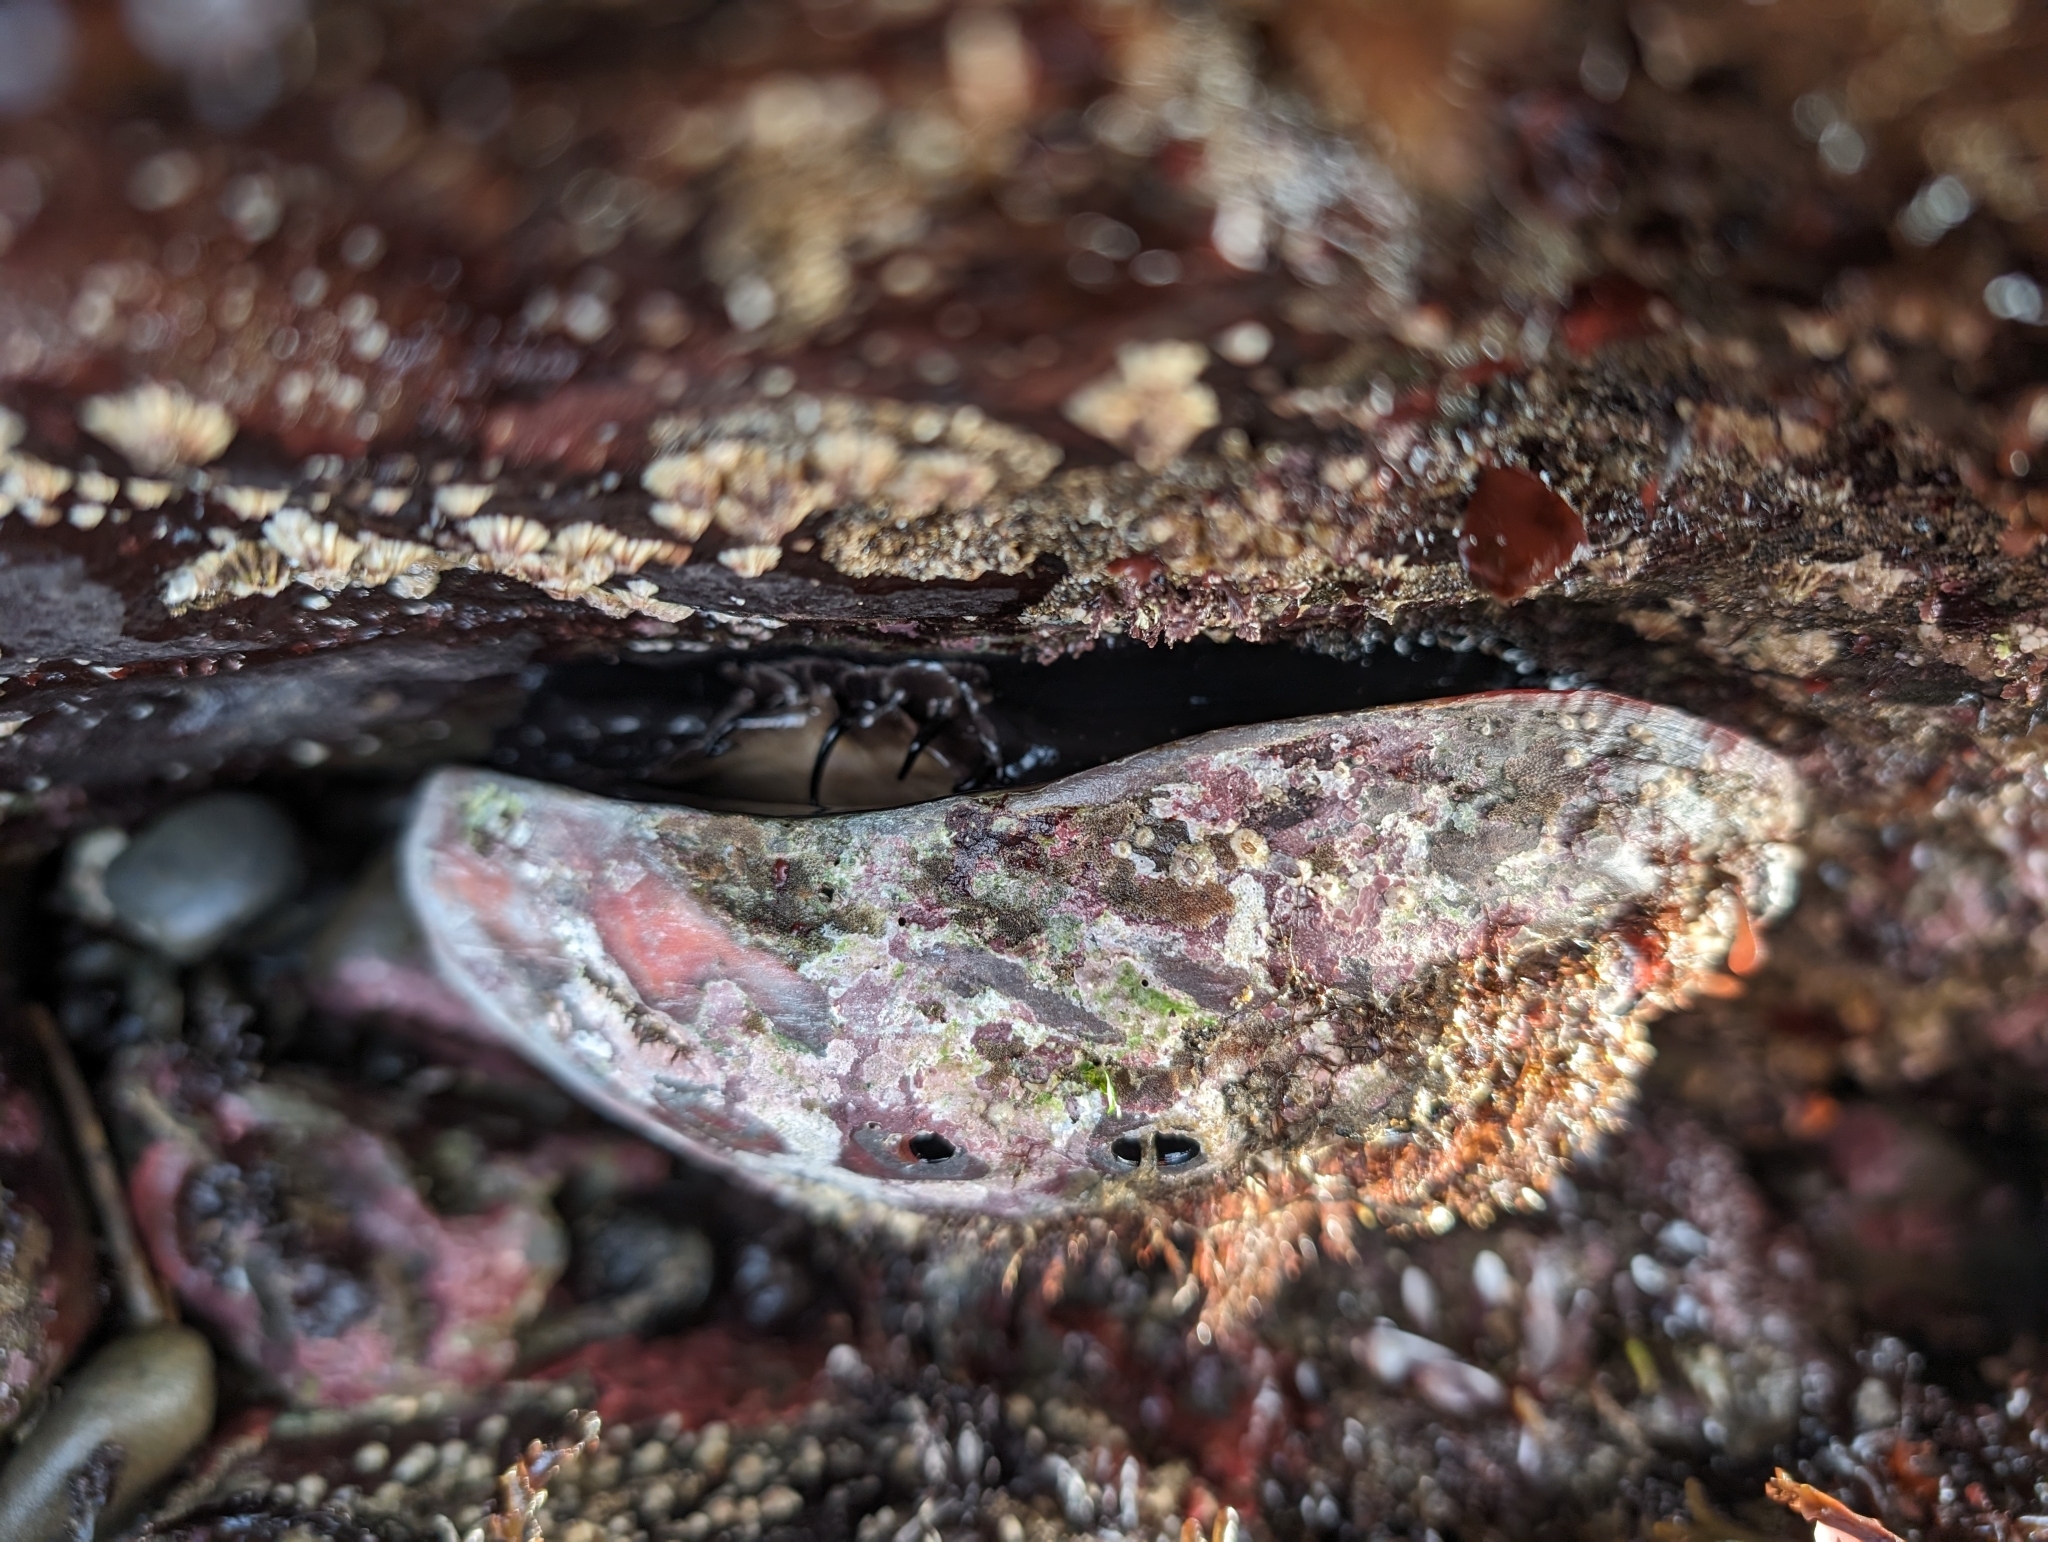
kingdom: Animalia
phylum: Mollusca
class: Gastropoda
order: Lepetellida
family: Haliotidae
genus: Haliotis
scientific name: Haliotis rufescens
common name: Red abalone
